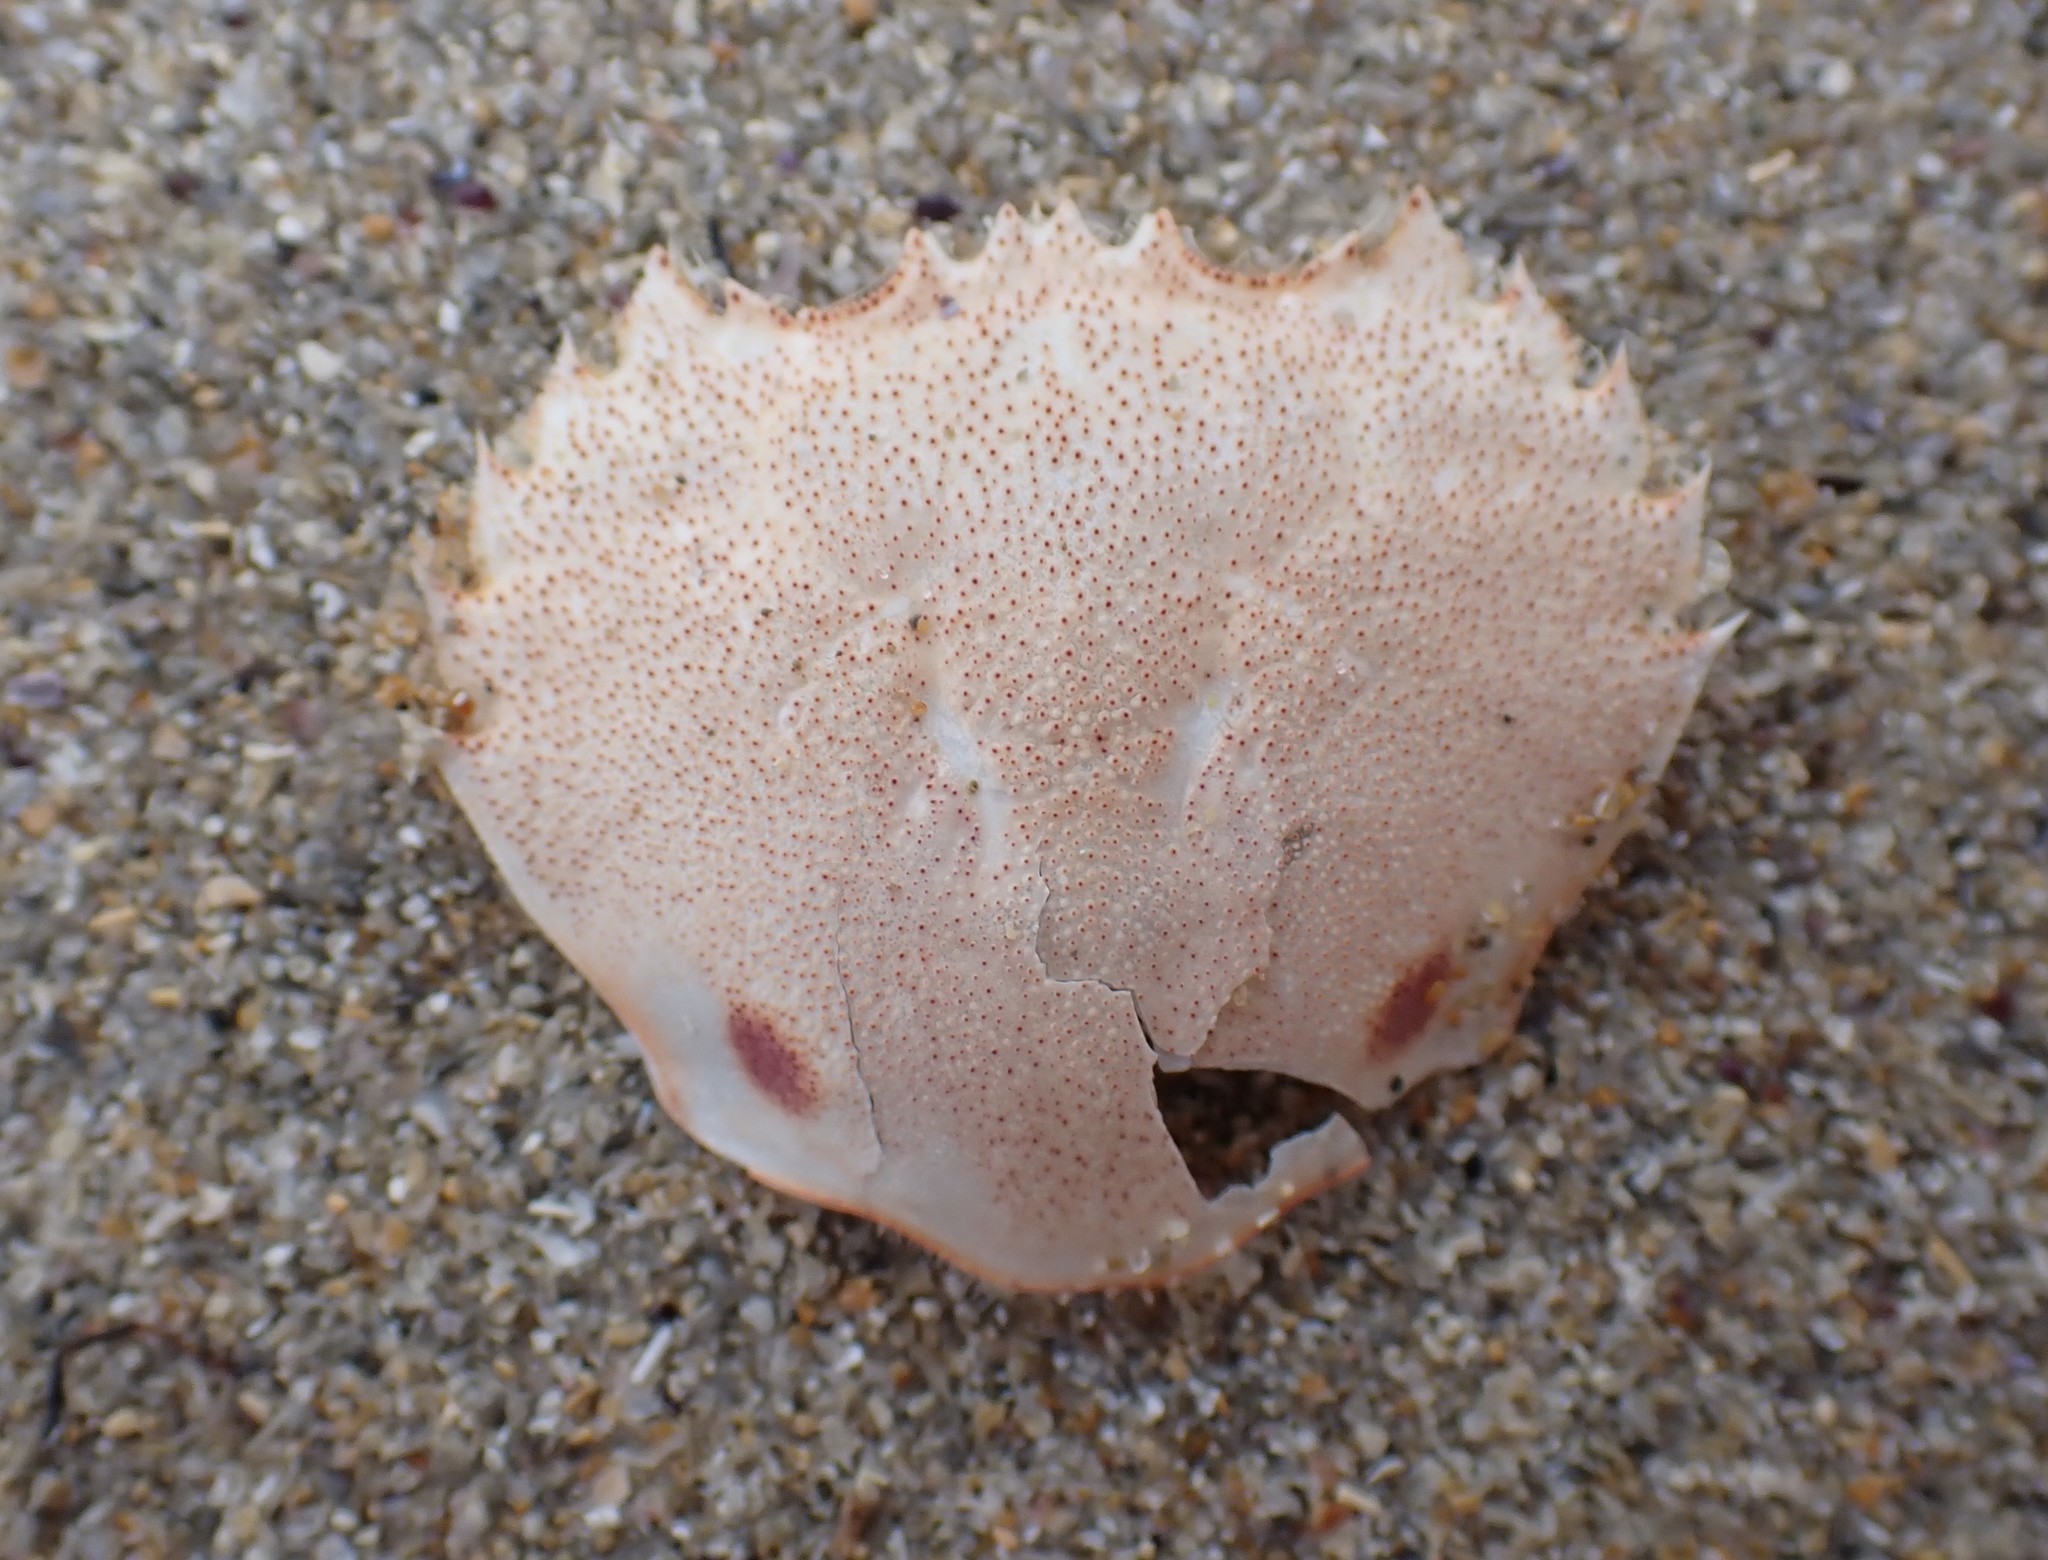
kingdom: Animalia
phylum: Arthropoda
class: Malacostraca
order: Decapoda
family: Ovalipidae
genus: Ovalipes
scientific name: Ovalipes australiensis
